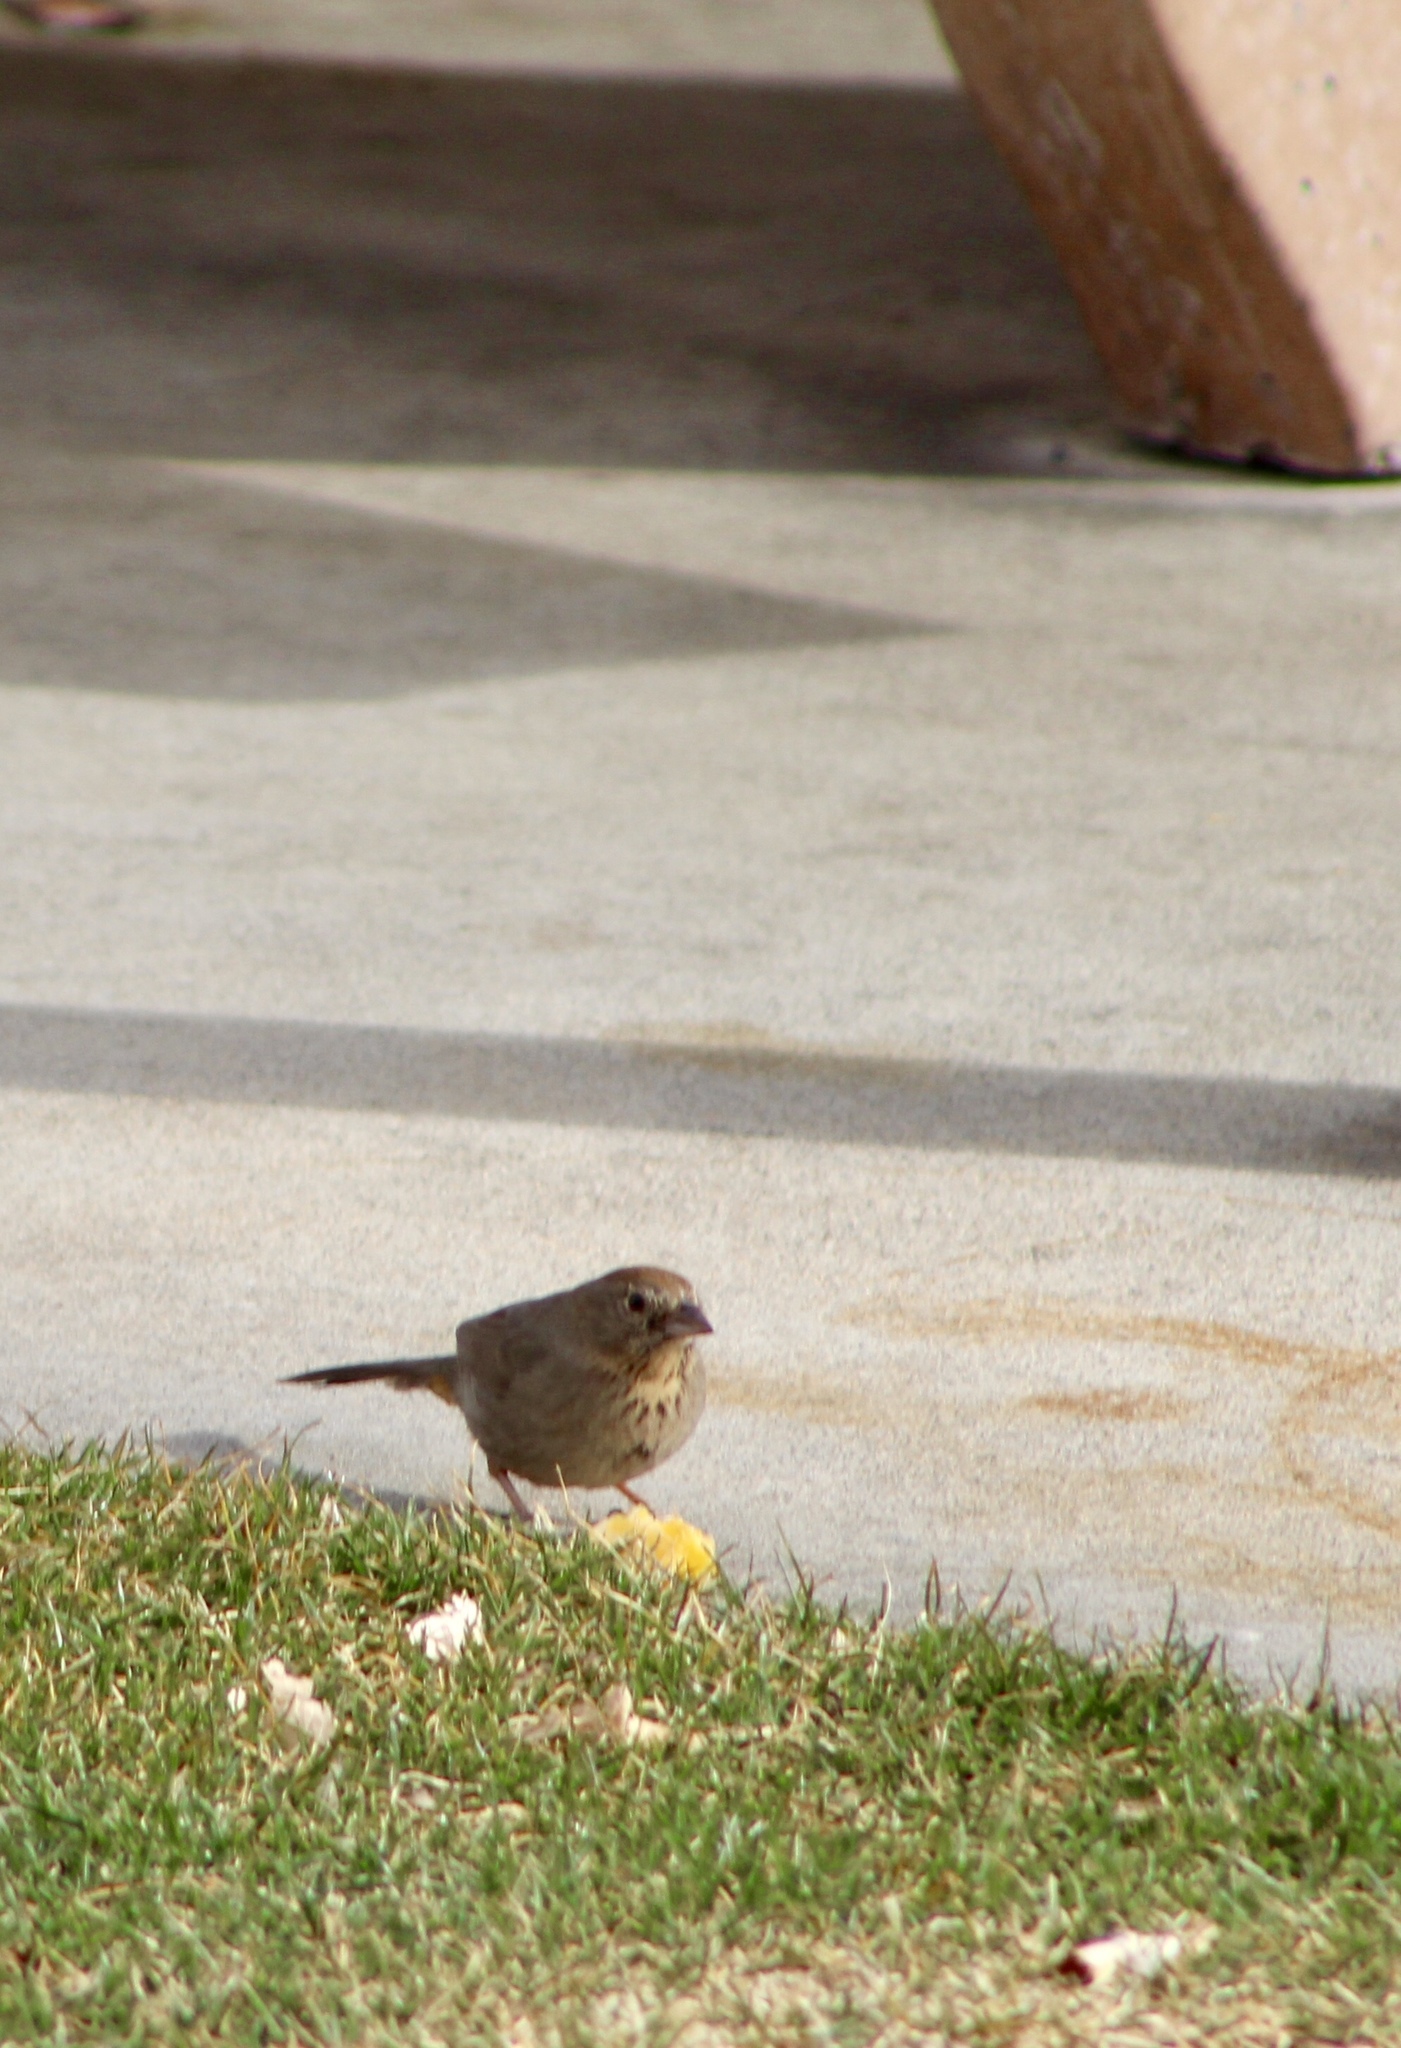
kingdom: Animalia
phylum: Chordata
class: Aves
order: Passeriformes
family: Passerellidae
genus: Melozone
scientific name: Melozone fusca
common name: Canyon towhee
